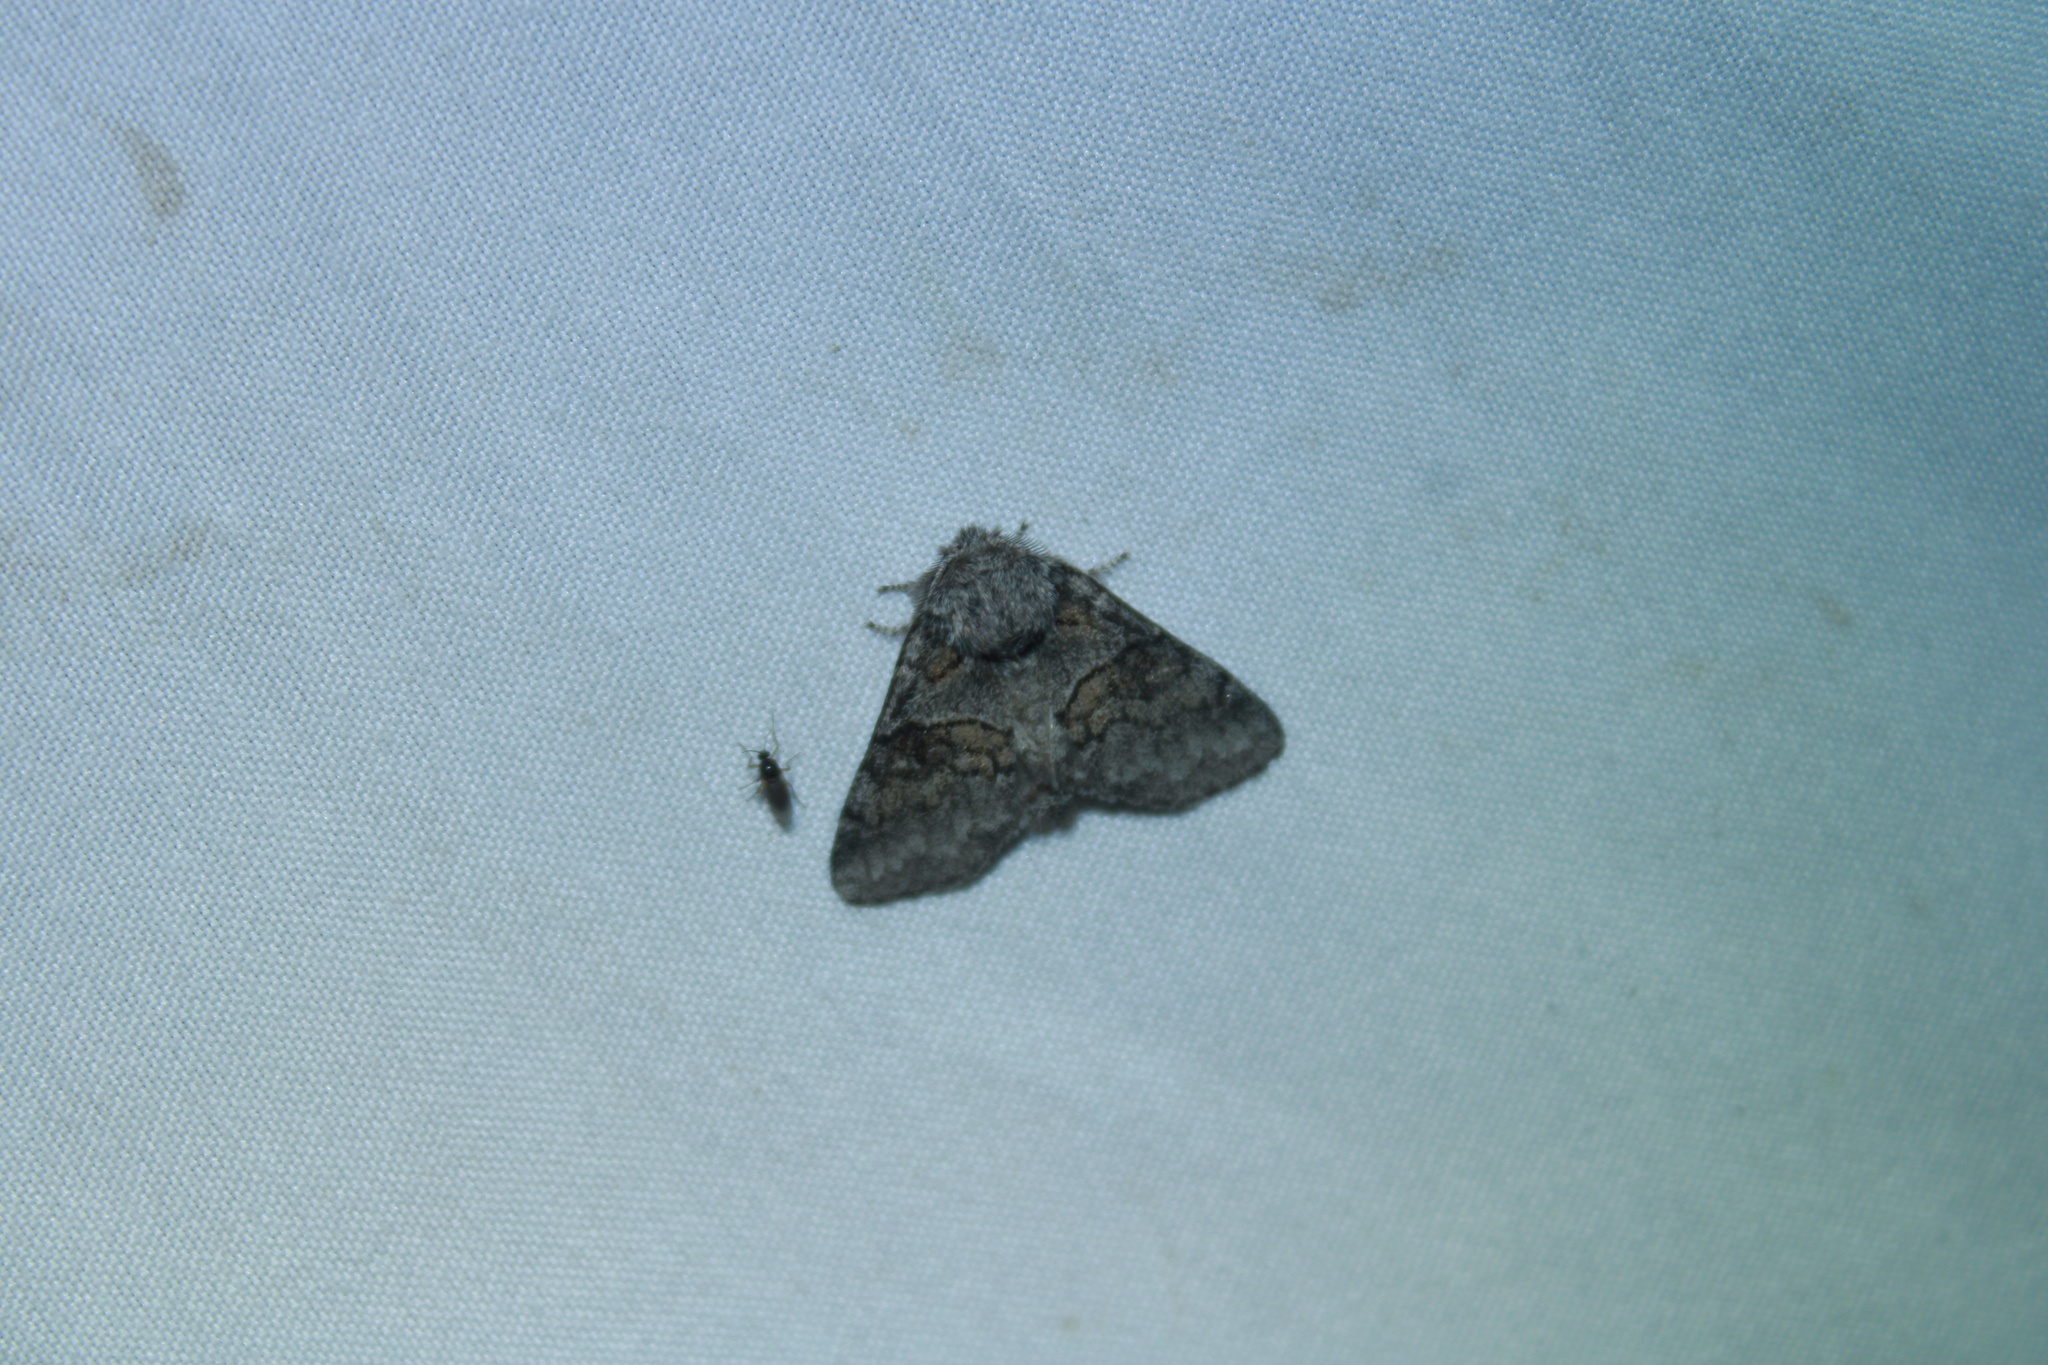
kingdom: Animalia
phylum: Arthropoda
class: Insecta
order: Lepidoptera
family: Notodontidae
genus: Gluphisia
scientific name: Gluphisia septentrionis
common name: Common gluphisia
